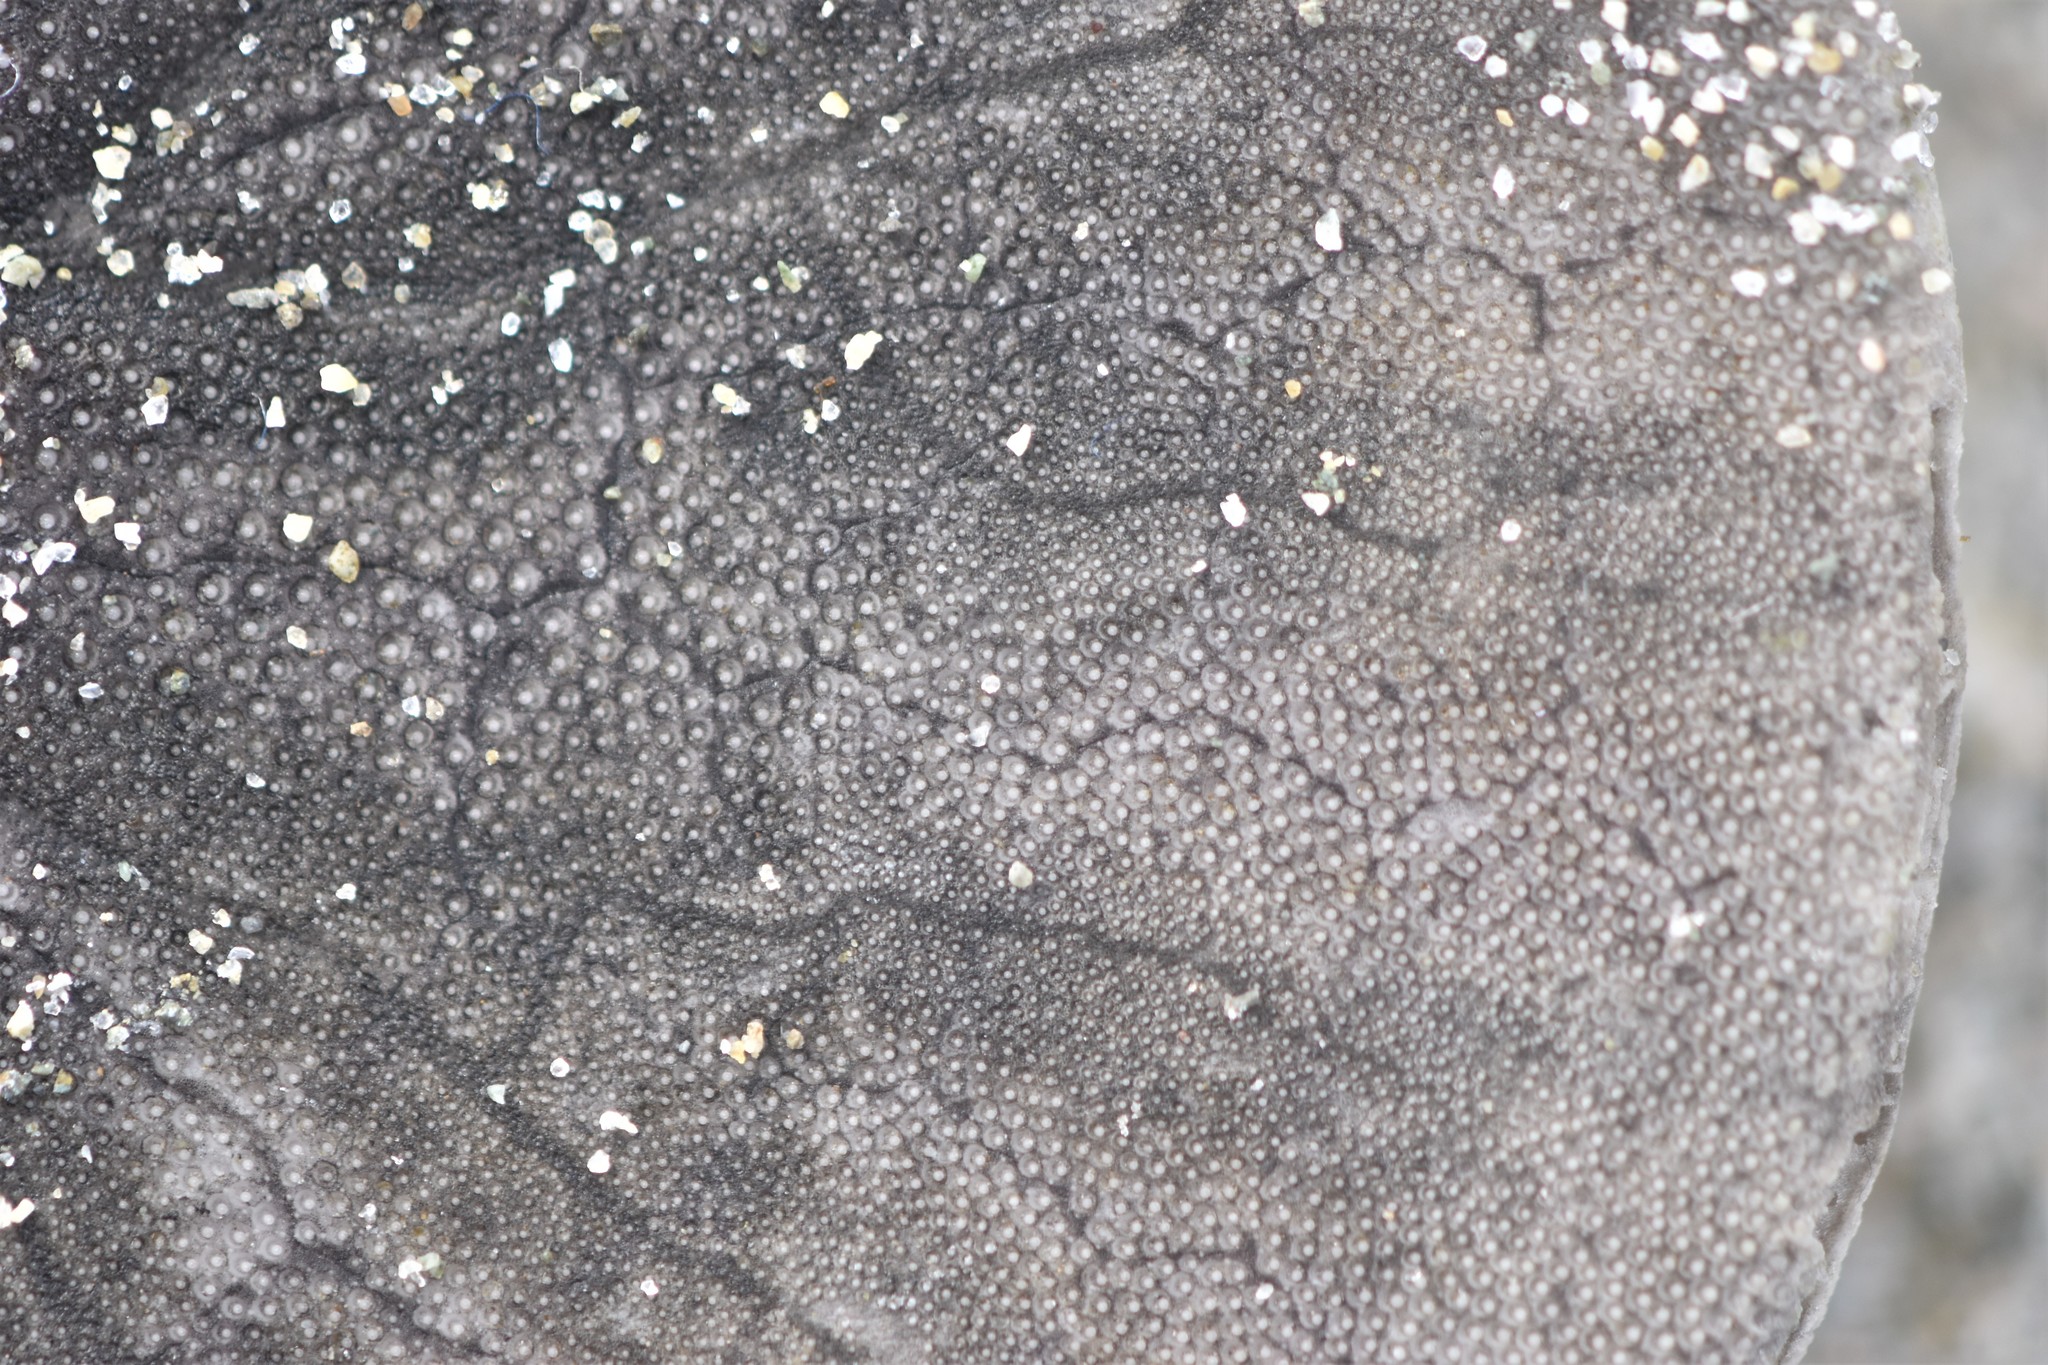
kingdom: Animalia
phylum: Echinodermata
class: Echinoidea
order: Echinolampadacea
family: Dendrasteridae
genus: Dendraster
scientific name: Dendraster excentricus
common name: Eccentric sand dollar sea urchin
